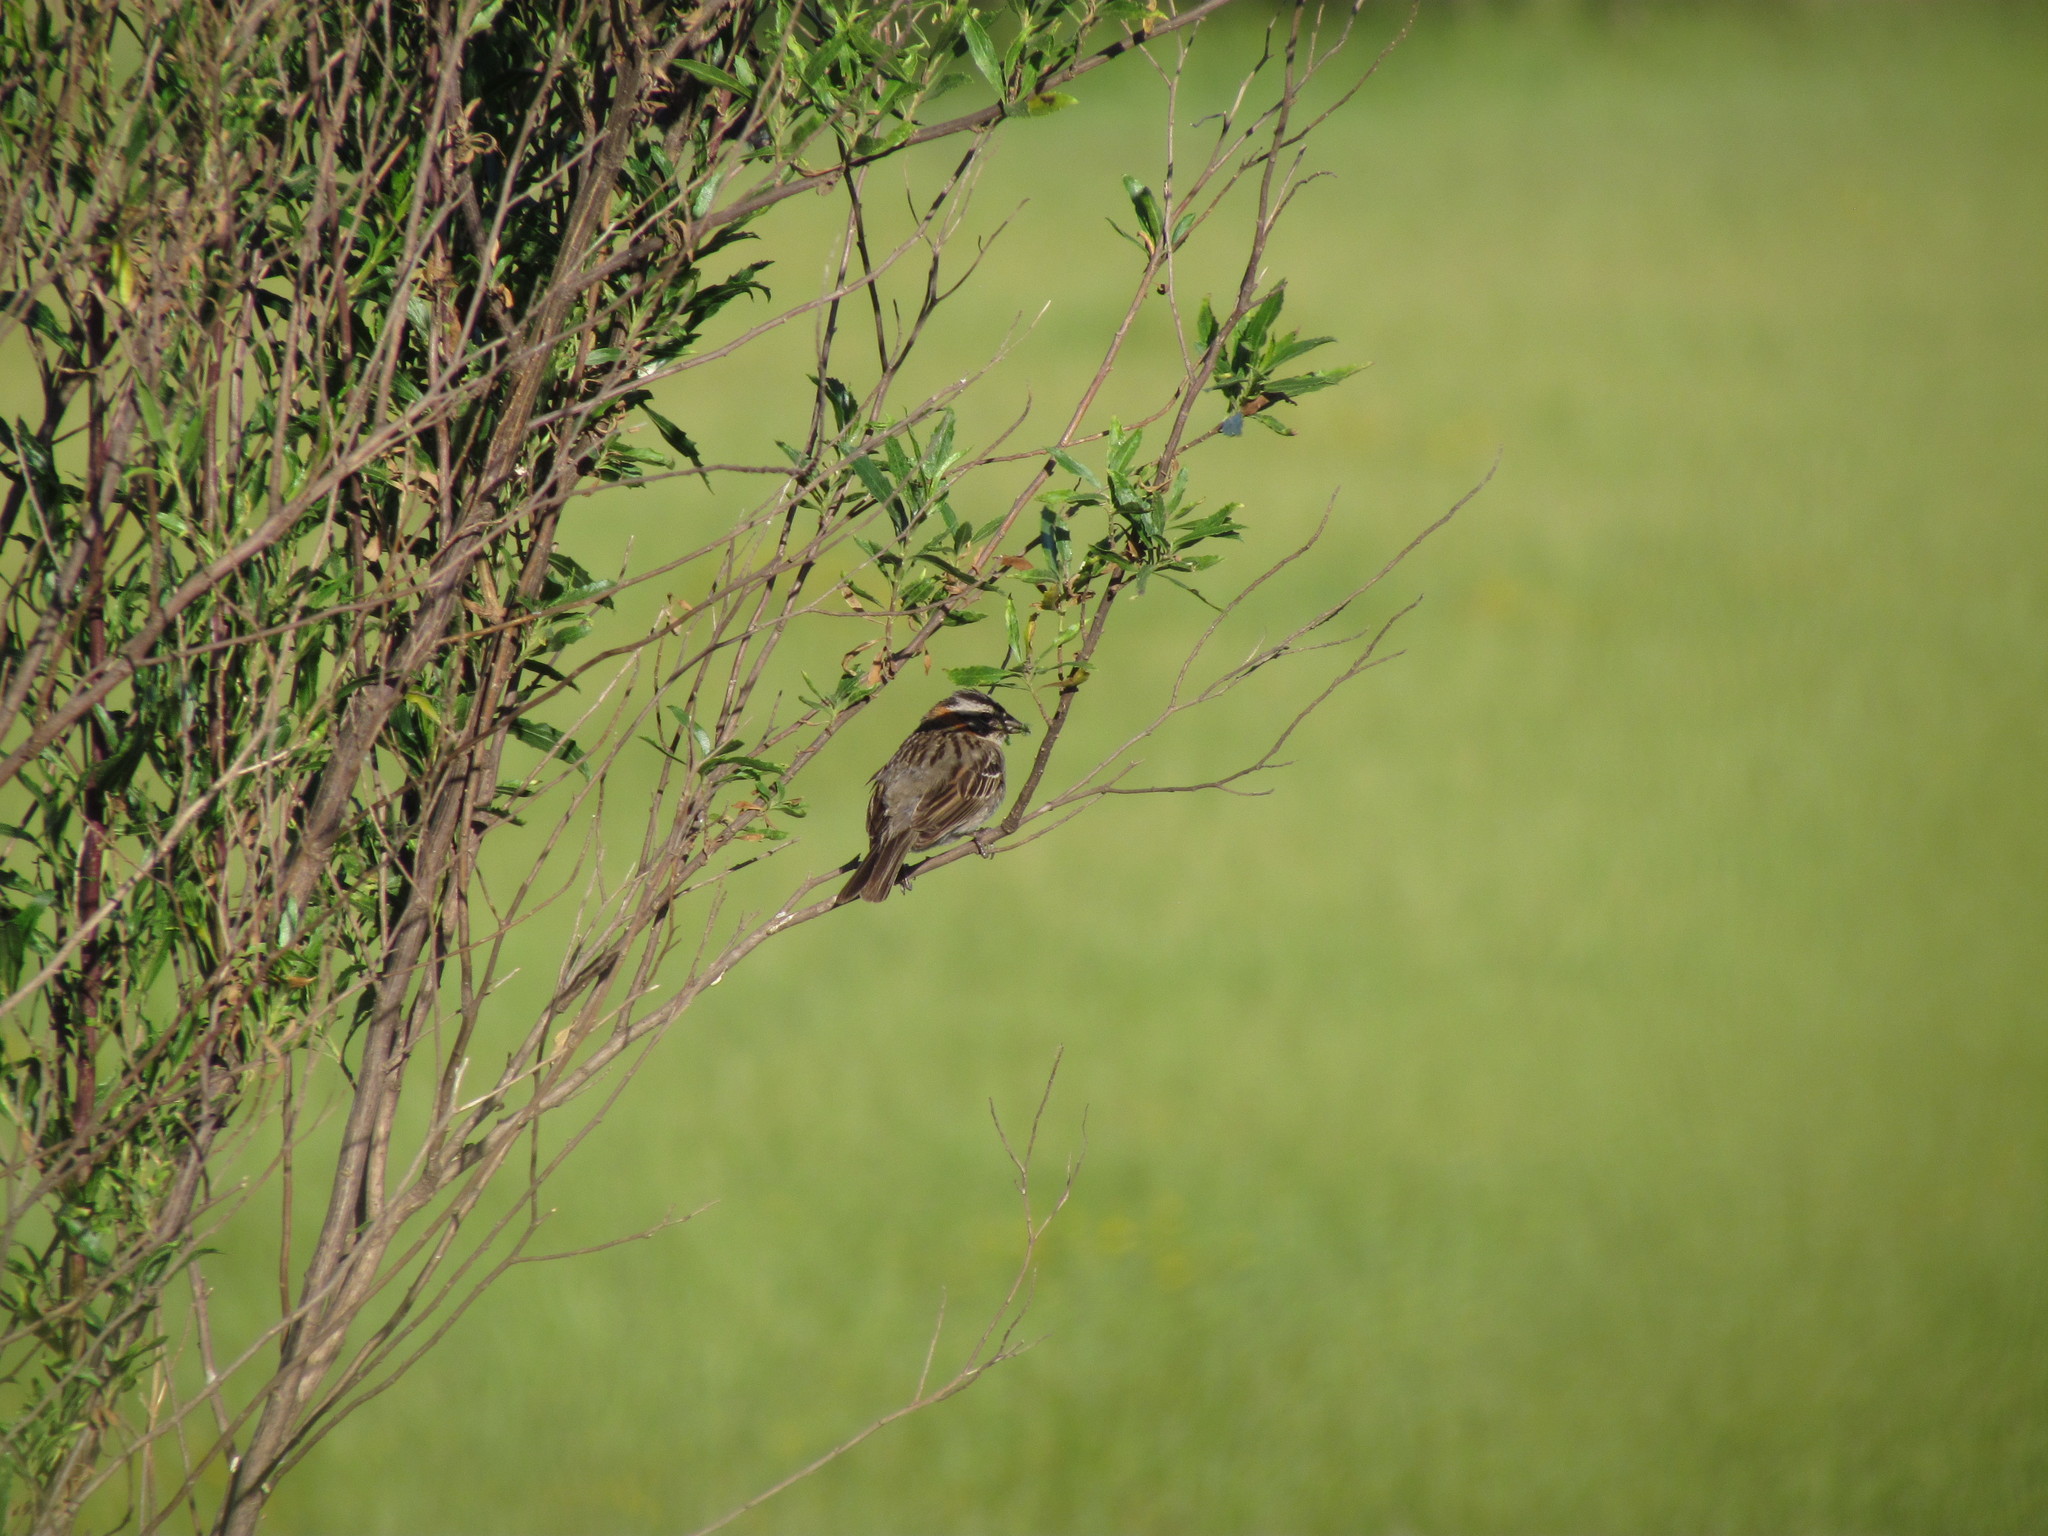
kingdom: Animalia
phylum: Chordata
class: Aves
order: Passeriformes
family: Passerellidae
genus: Zonotrichia
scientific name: Zonotrichia capensis
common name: Rufous-collared sparrow
